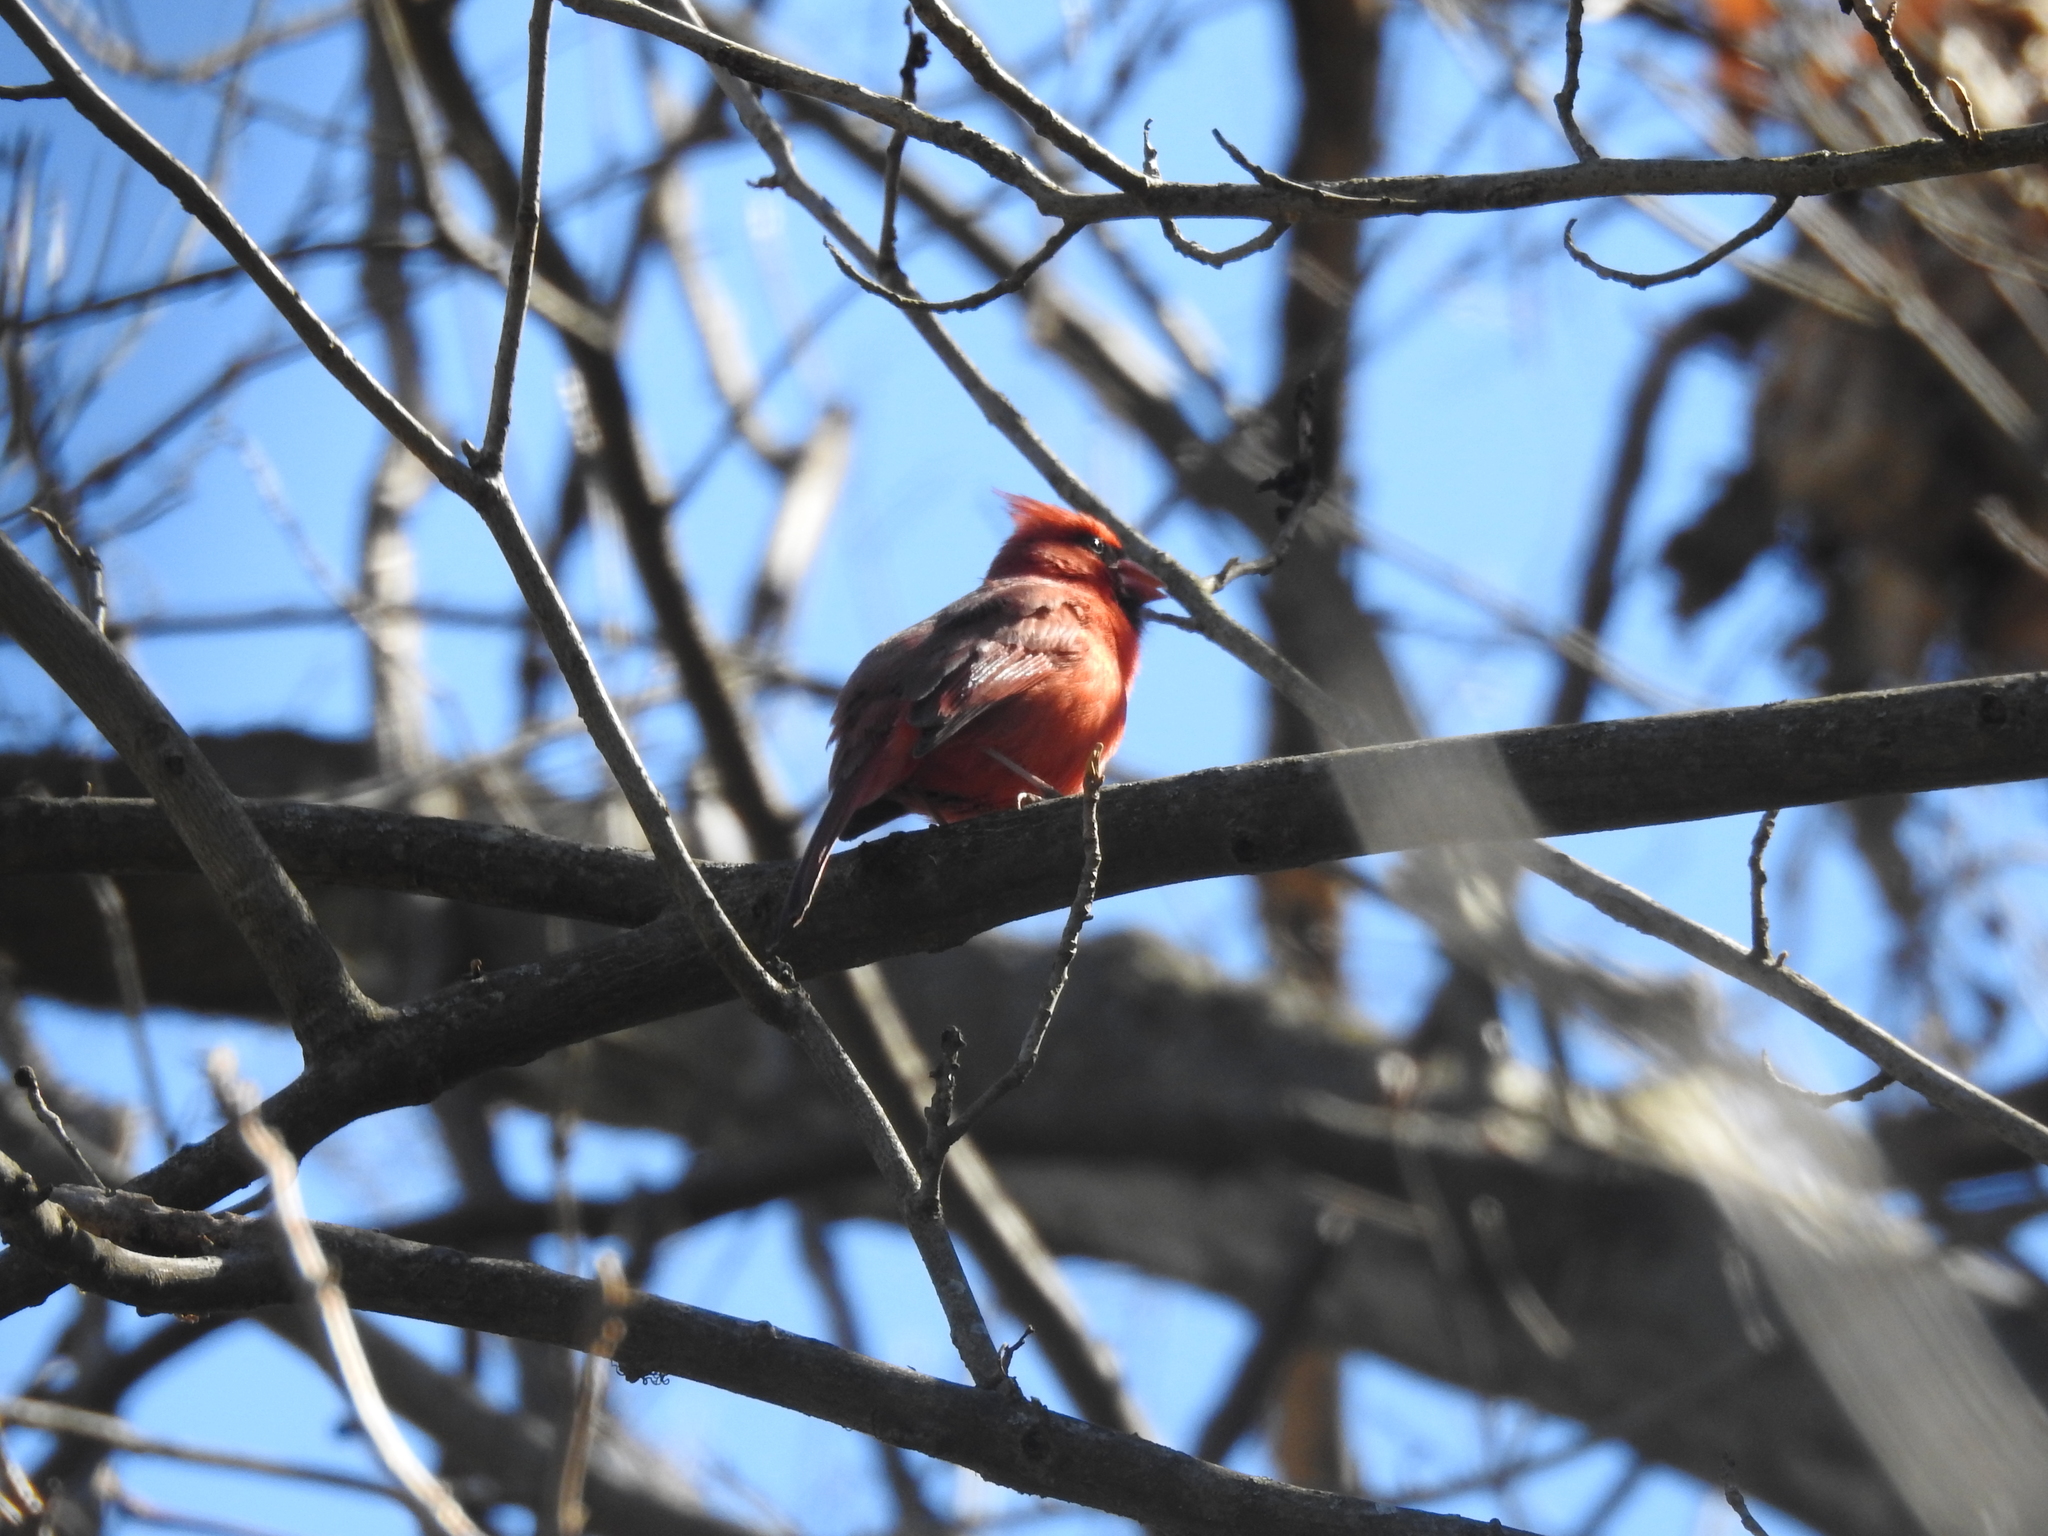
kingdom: Animalia
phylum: Chordata
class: Aves
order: Passeriformes
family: Cardinalidae
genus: Cardinalis
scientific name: Cardinalis cardinalis
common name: Northern cardinal
